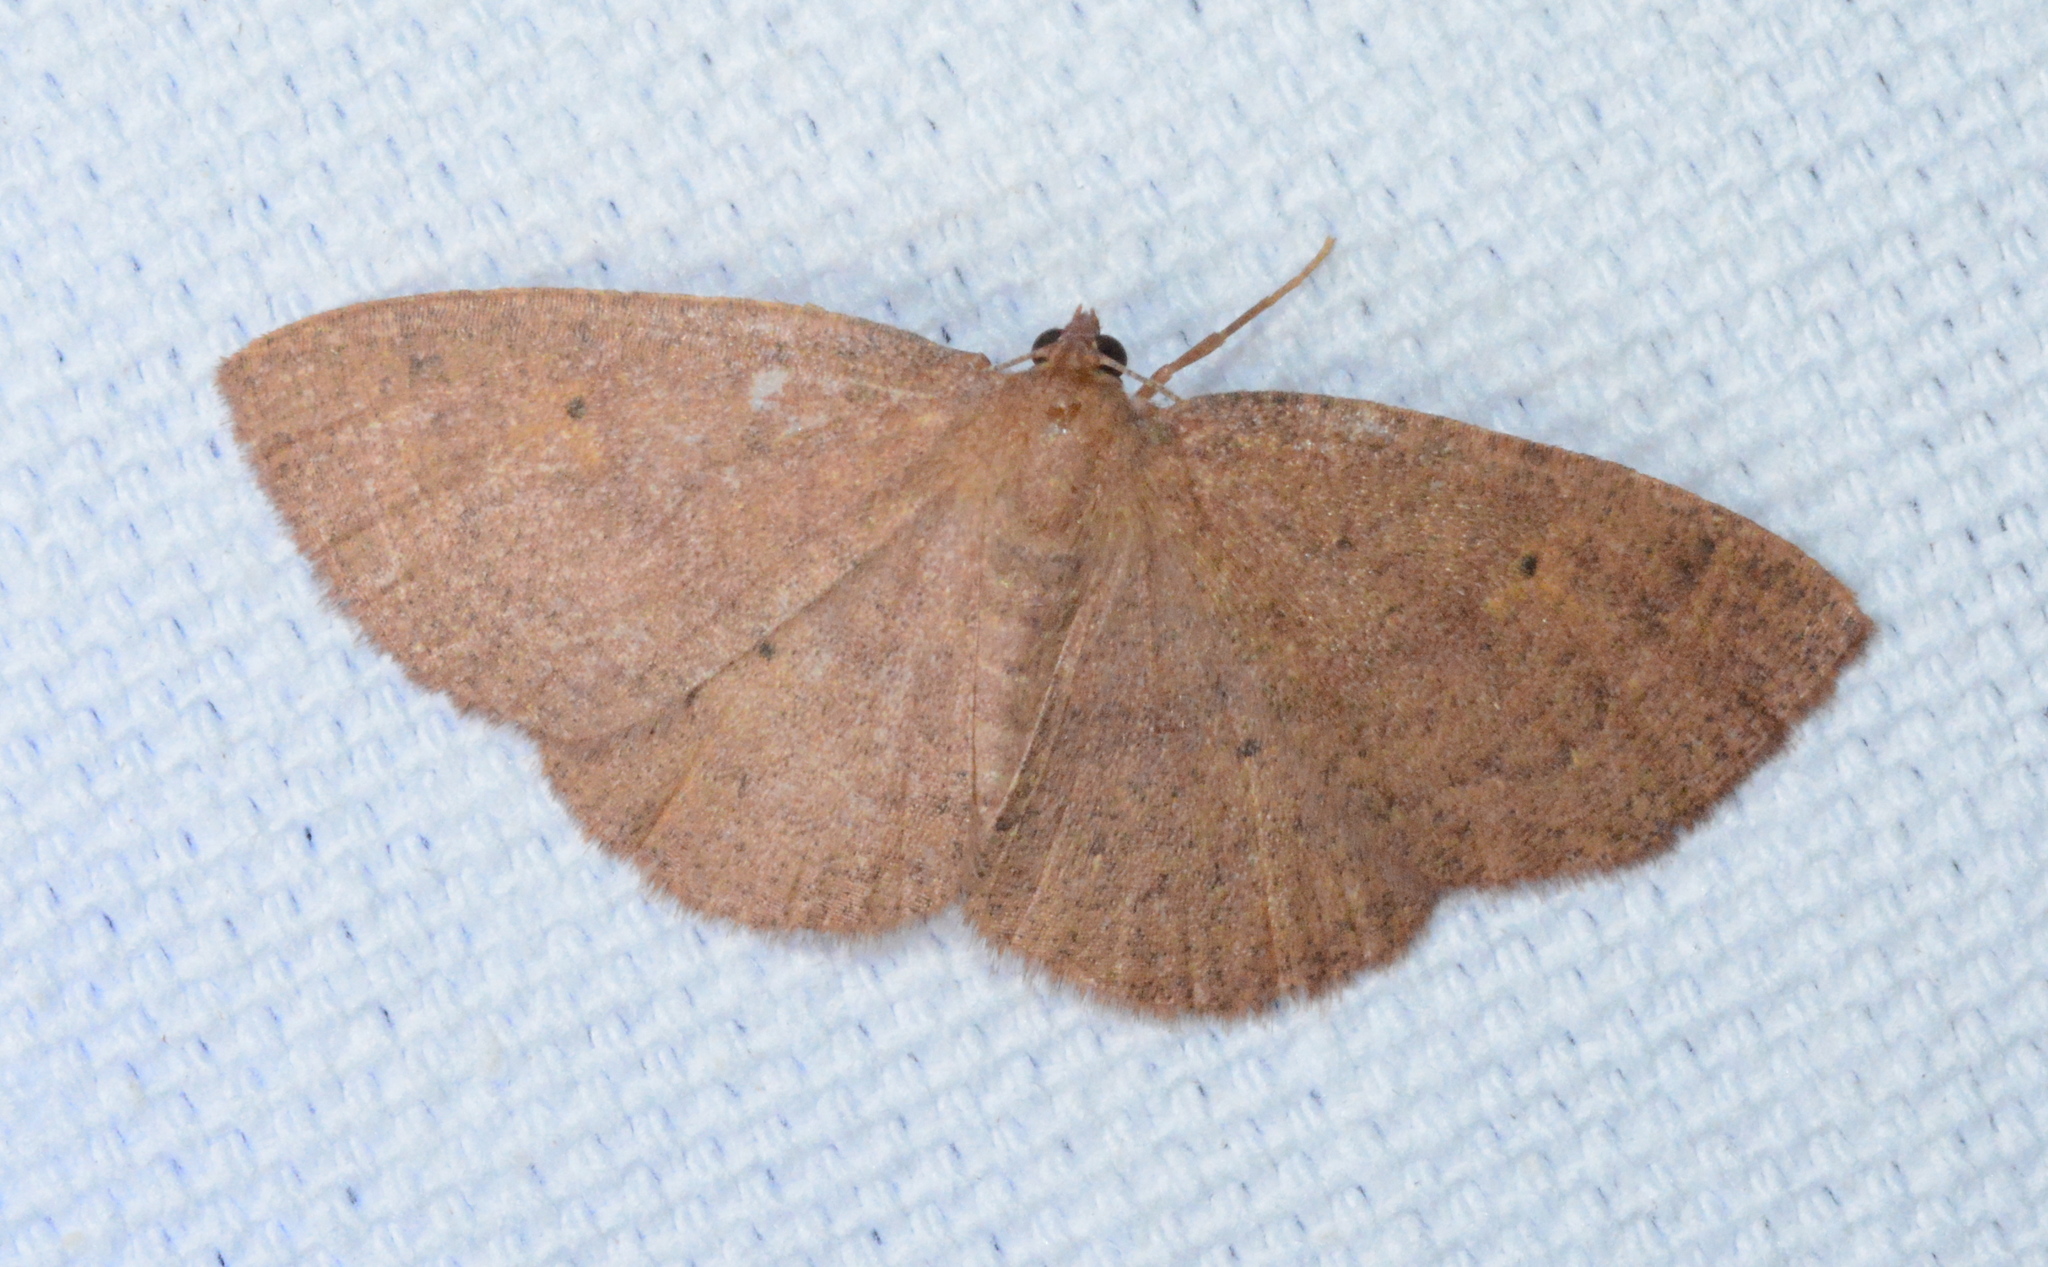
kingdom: Animalia
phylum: Arthropoda
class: Insecta
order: Lepidoptera
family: Geometridae
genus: Ilexia
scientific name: Ilexia intractata
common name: Black-dotted ruddy moth
